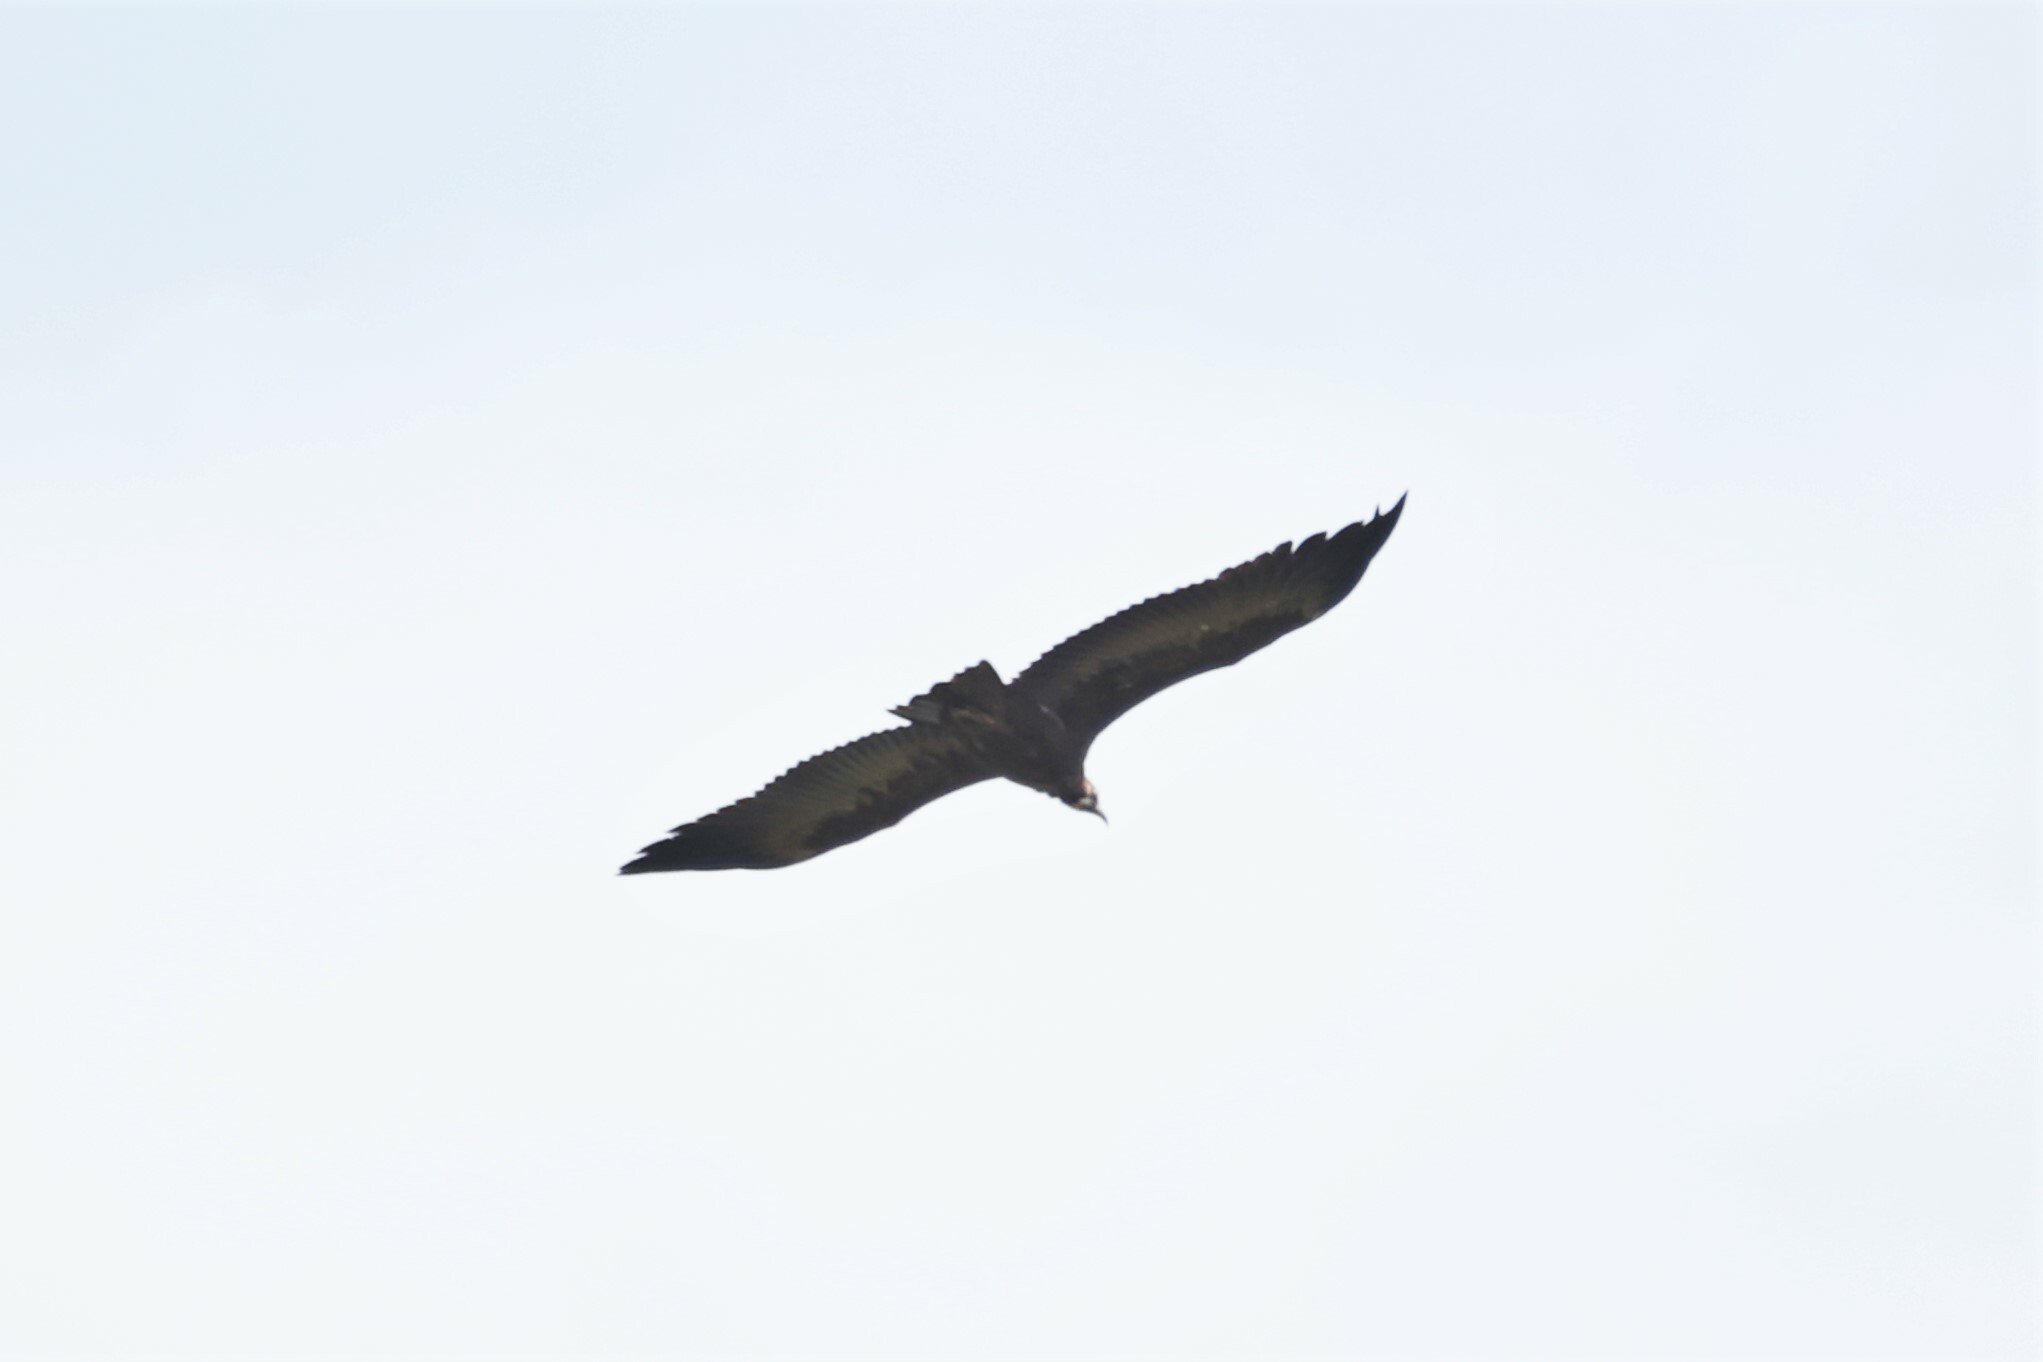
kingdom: Animalia
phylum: Chordata
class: Aves
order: Accipitriformes
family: Accipitridae
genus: Necrosyrtes
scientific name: Necrosyrtes monachus
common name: Hooded vulture
